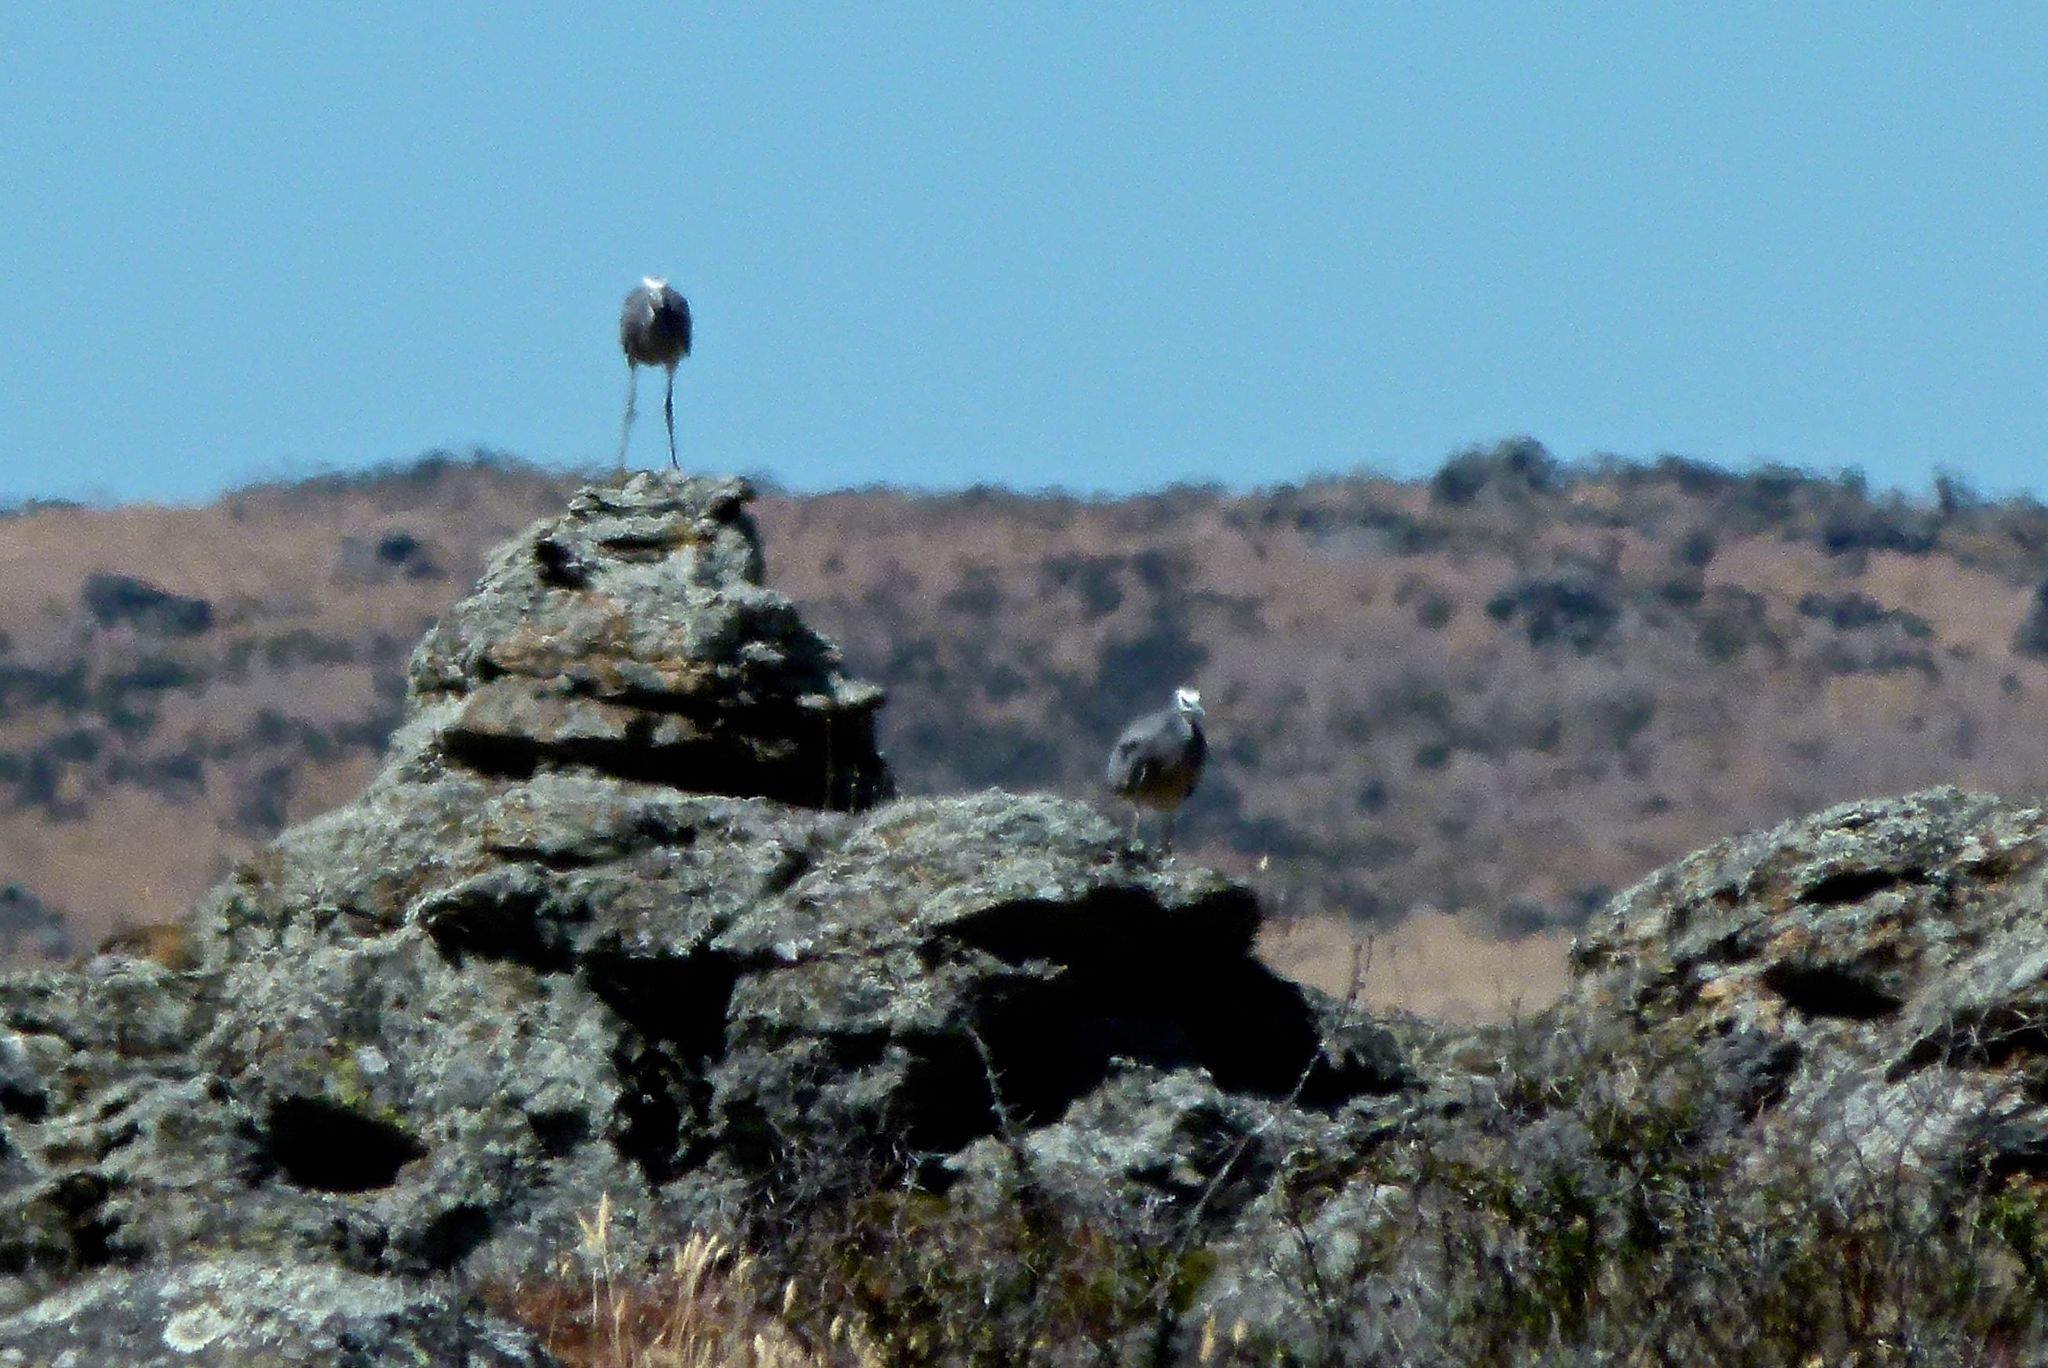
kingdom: Animalia
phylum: Chordata
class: Aves
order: Pelecaniformes
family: Ardeidae
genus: Egretta
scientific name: Egretta novaehollandiae
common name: White-faced heron
